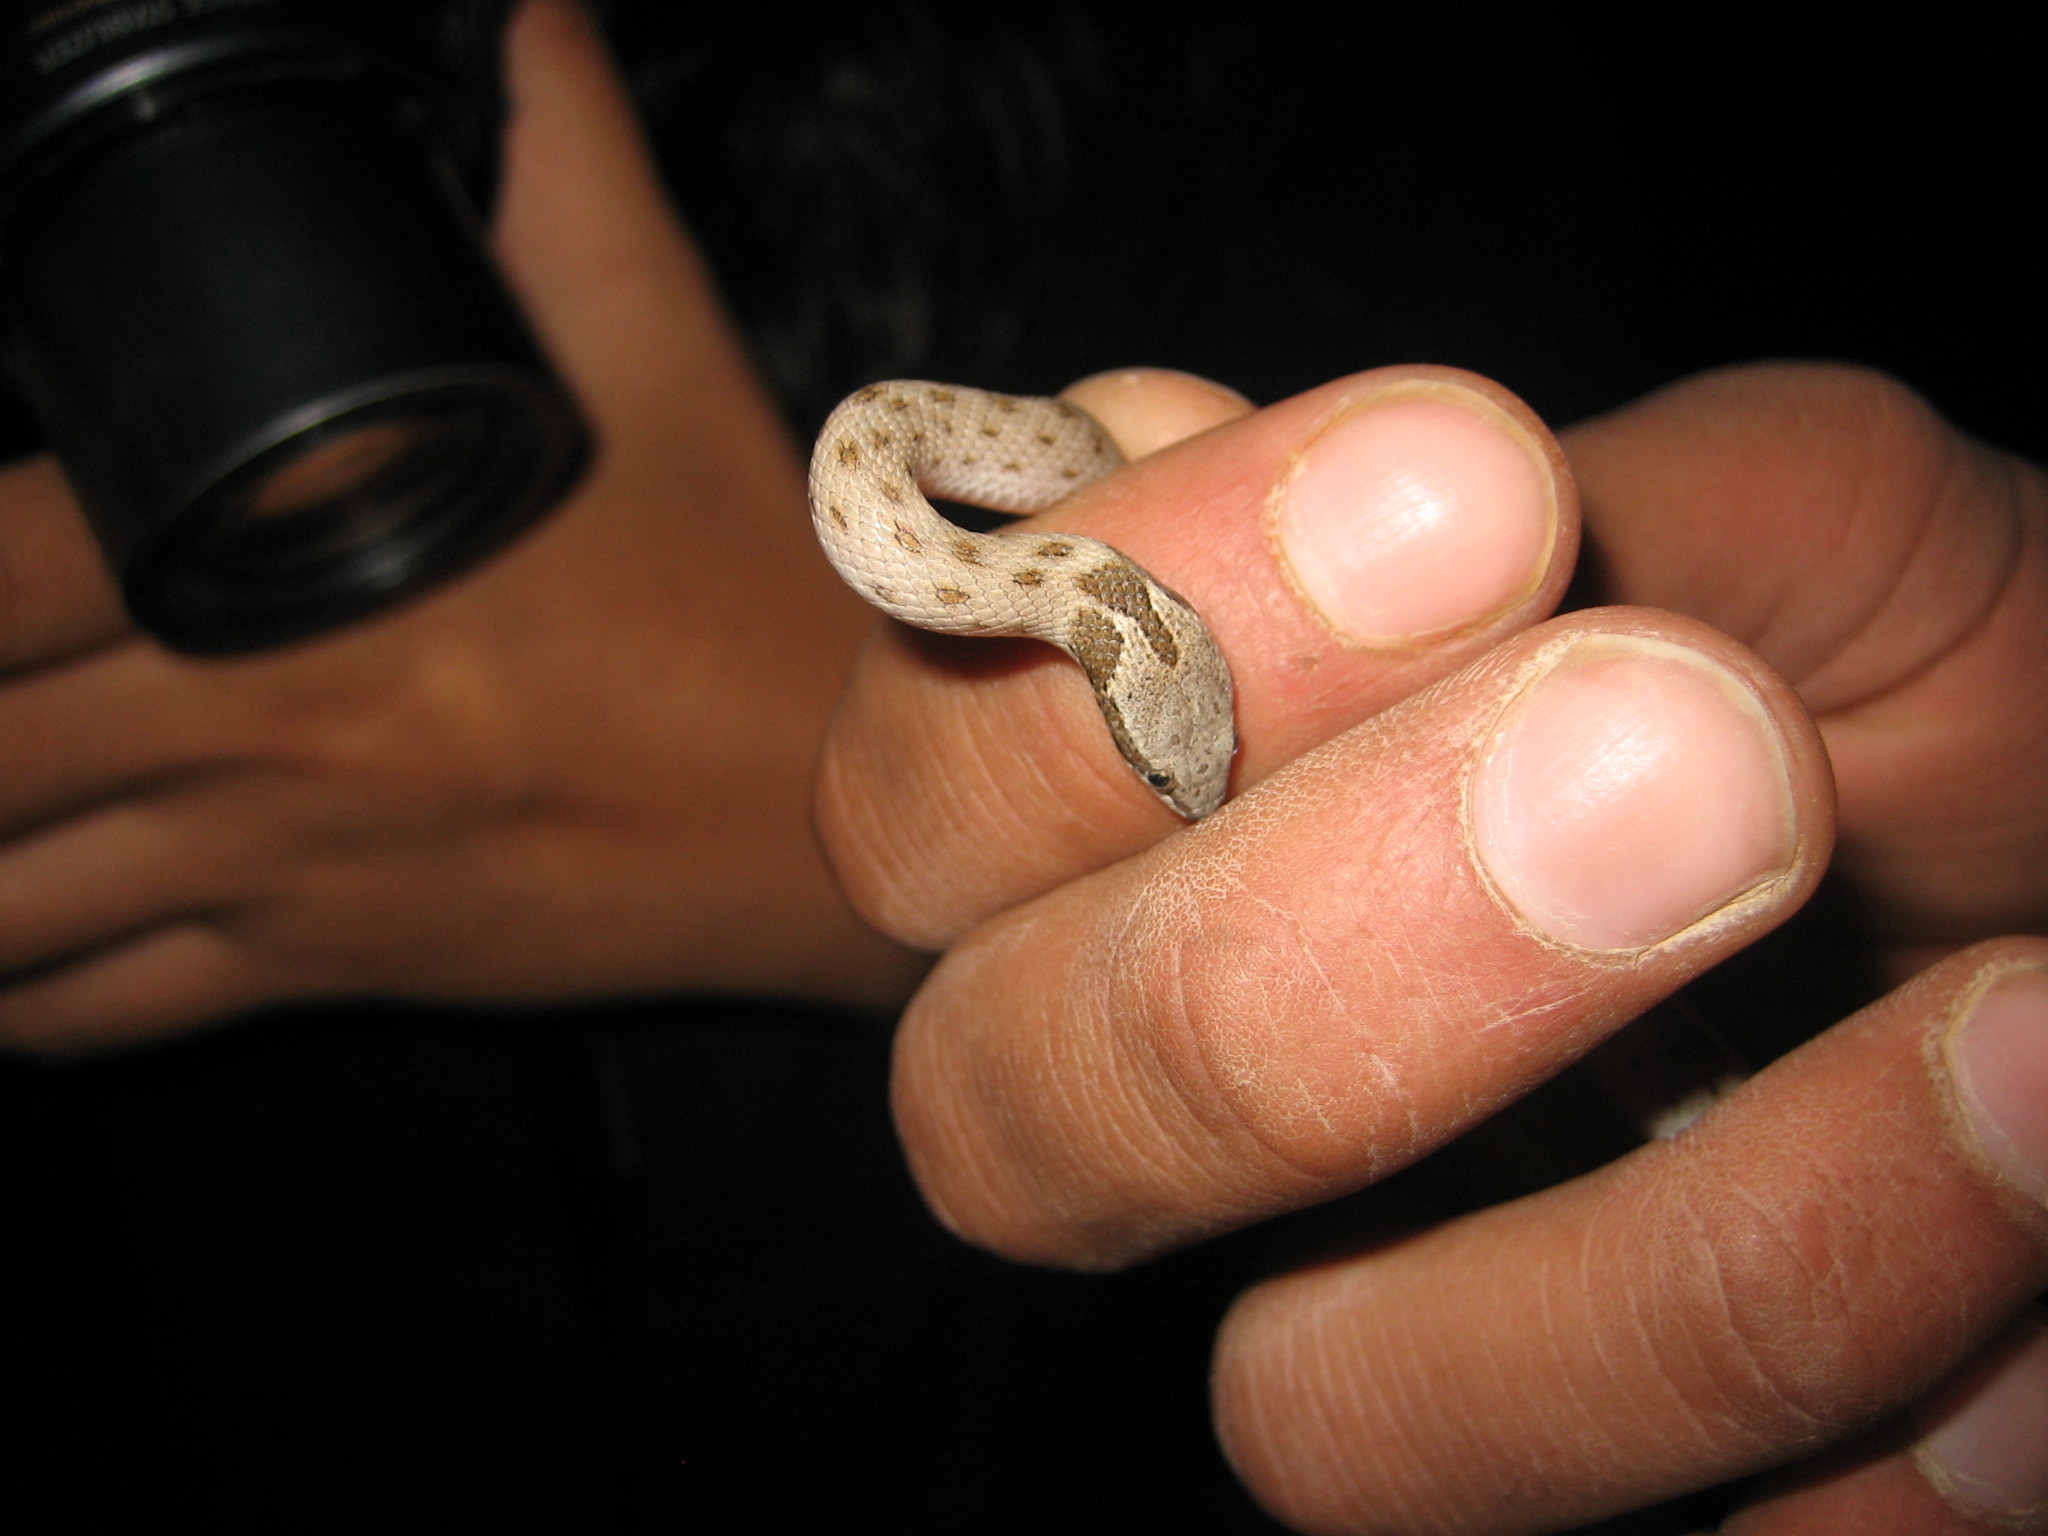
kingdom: Animalia
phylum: Chordata
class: Squamata
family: Colubridae
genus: Hypsiglena
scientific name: Hypsiglena chlorophaea
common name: Desert nightsnake
